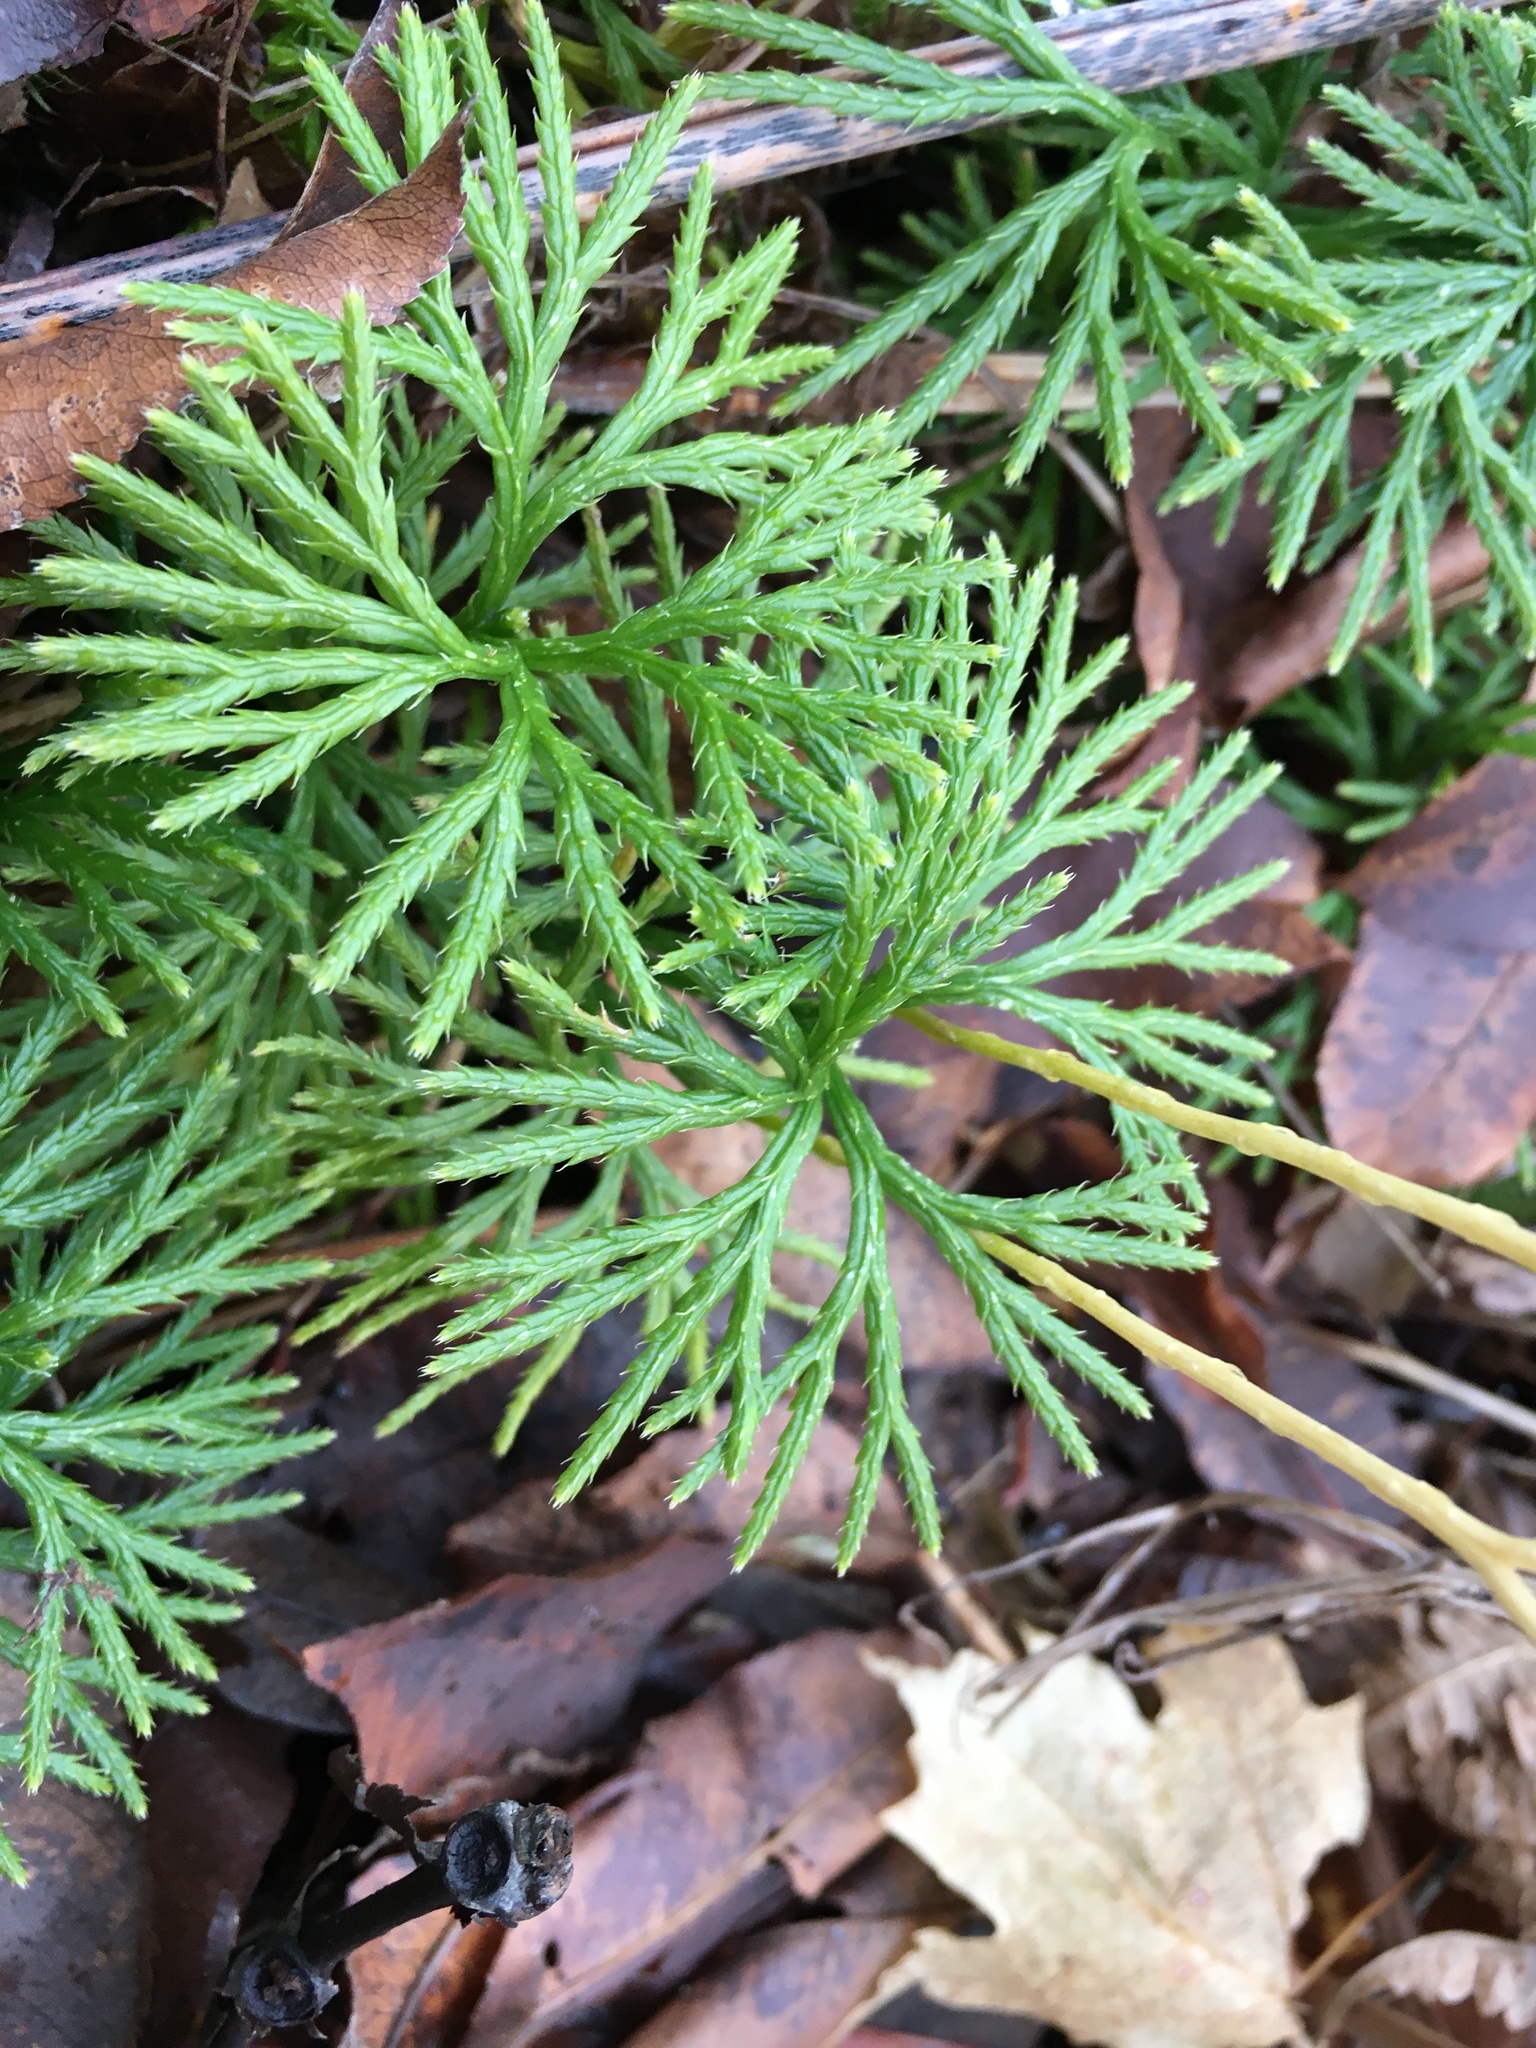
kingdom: Plantae
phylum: Tracheophyta
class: Lycopodiopsida
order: Lycopodiales
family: Lycopodiaceae
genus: Diphasiastrum
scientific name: Diphasiastrum digitatum
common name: Southern running-pine
